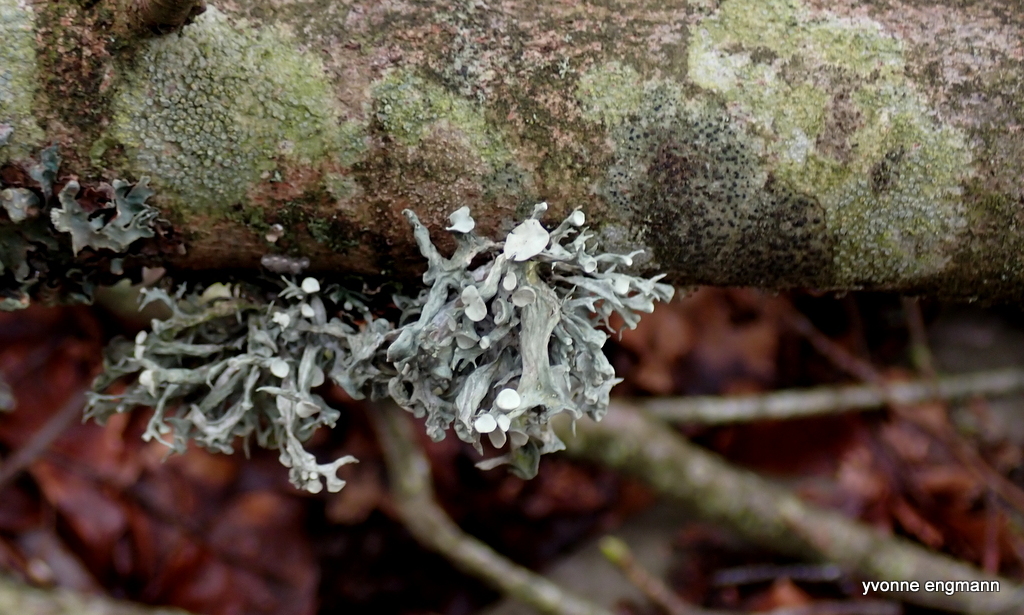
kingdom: Fungi
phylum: Ascomycota
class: Lecanoromycetes
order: Lecanorales
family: Ramalinaceae
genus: Ramalina
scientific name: Ramalina fastigiata
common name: Dotted ribbon lichen
